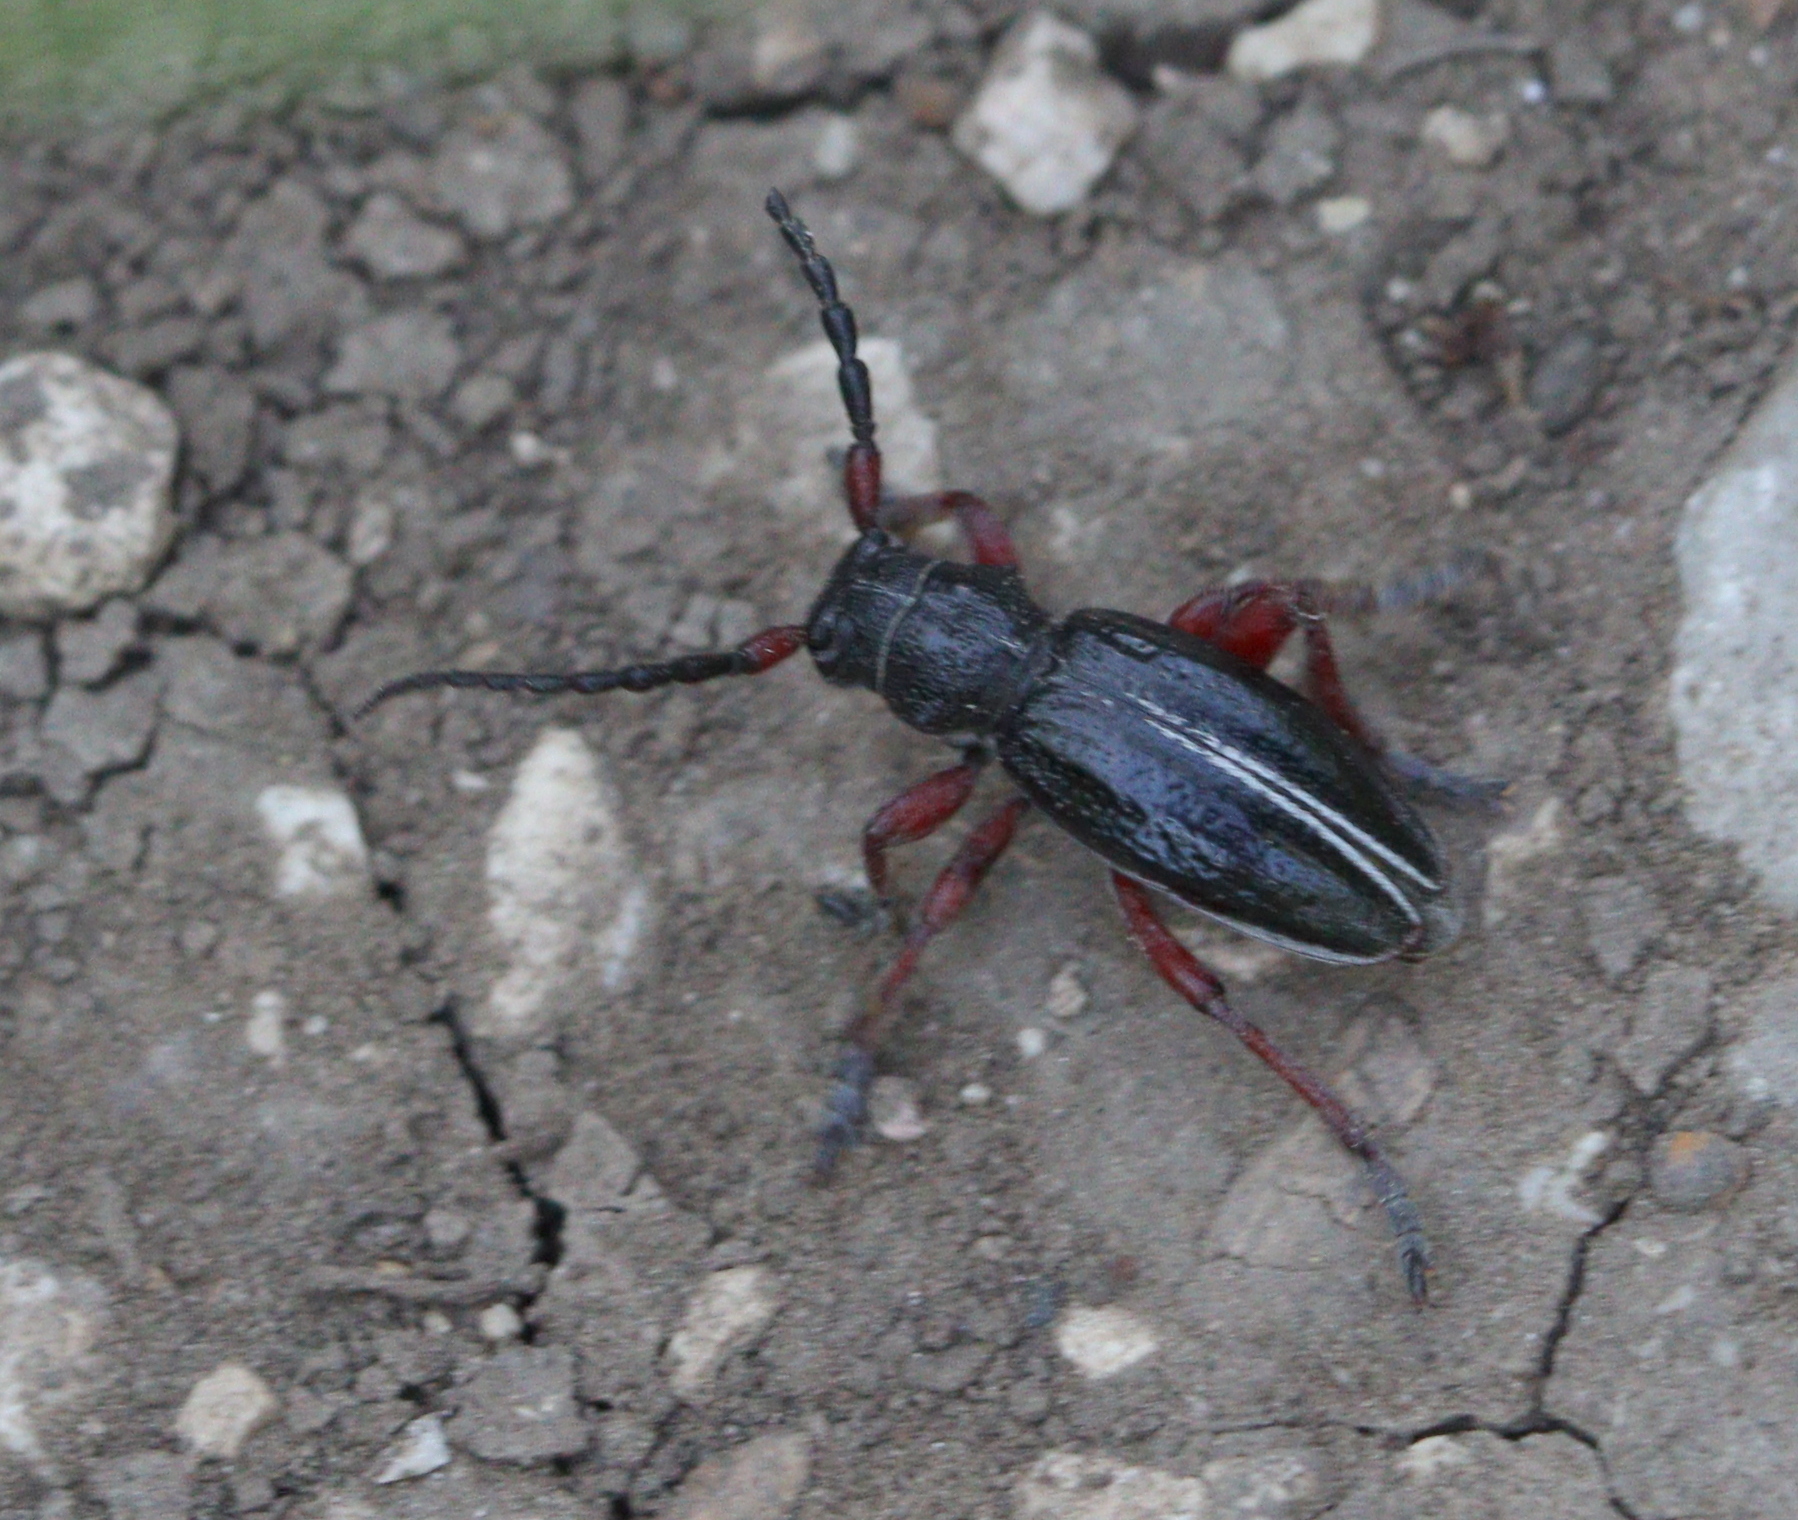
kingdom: Animalia
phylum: Arthropoda
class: Insecta
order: Coleoptera
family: Cerambycidae
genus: Dorcadion
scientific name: Dorcadion pedestre
